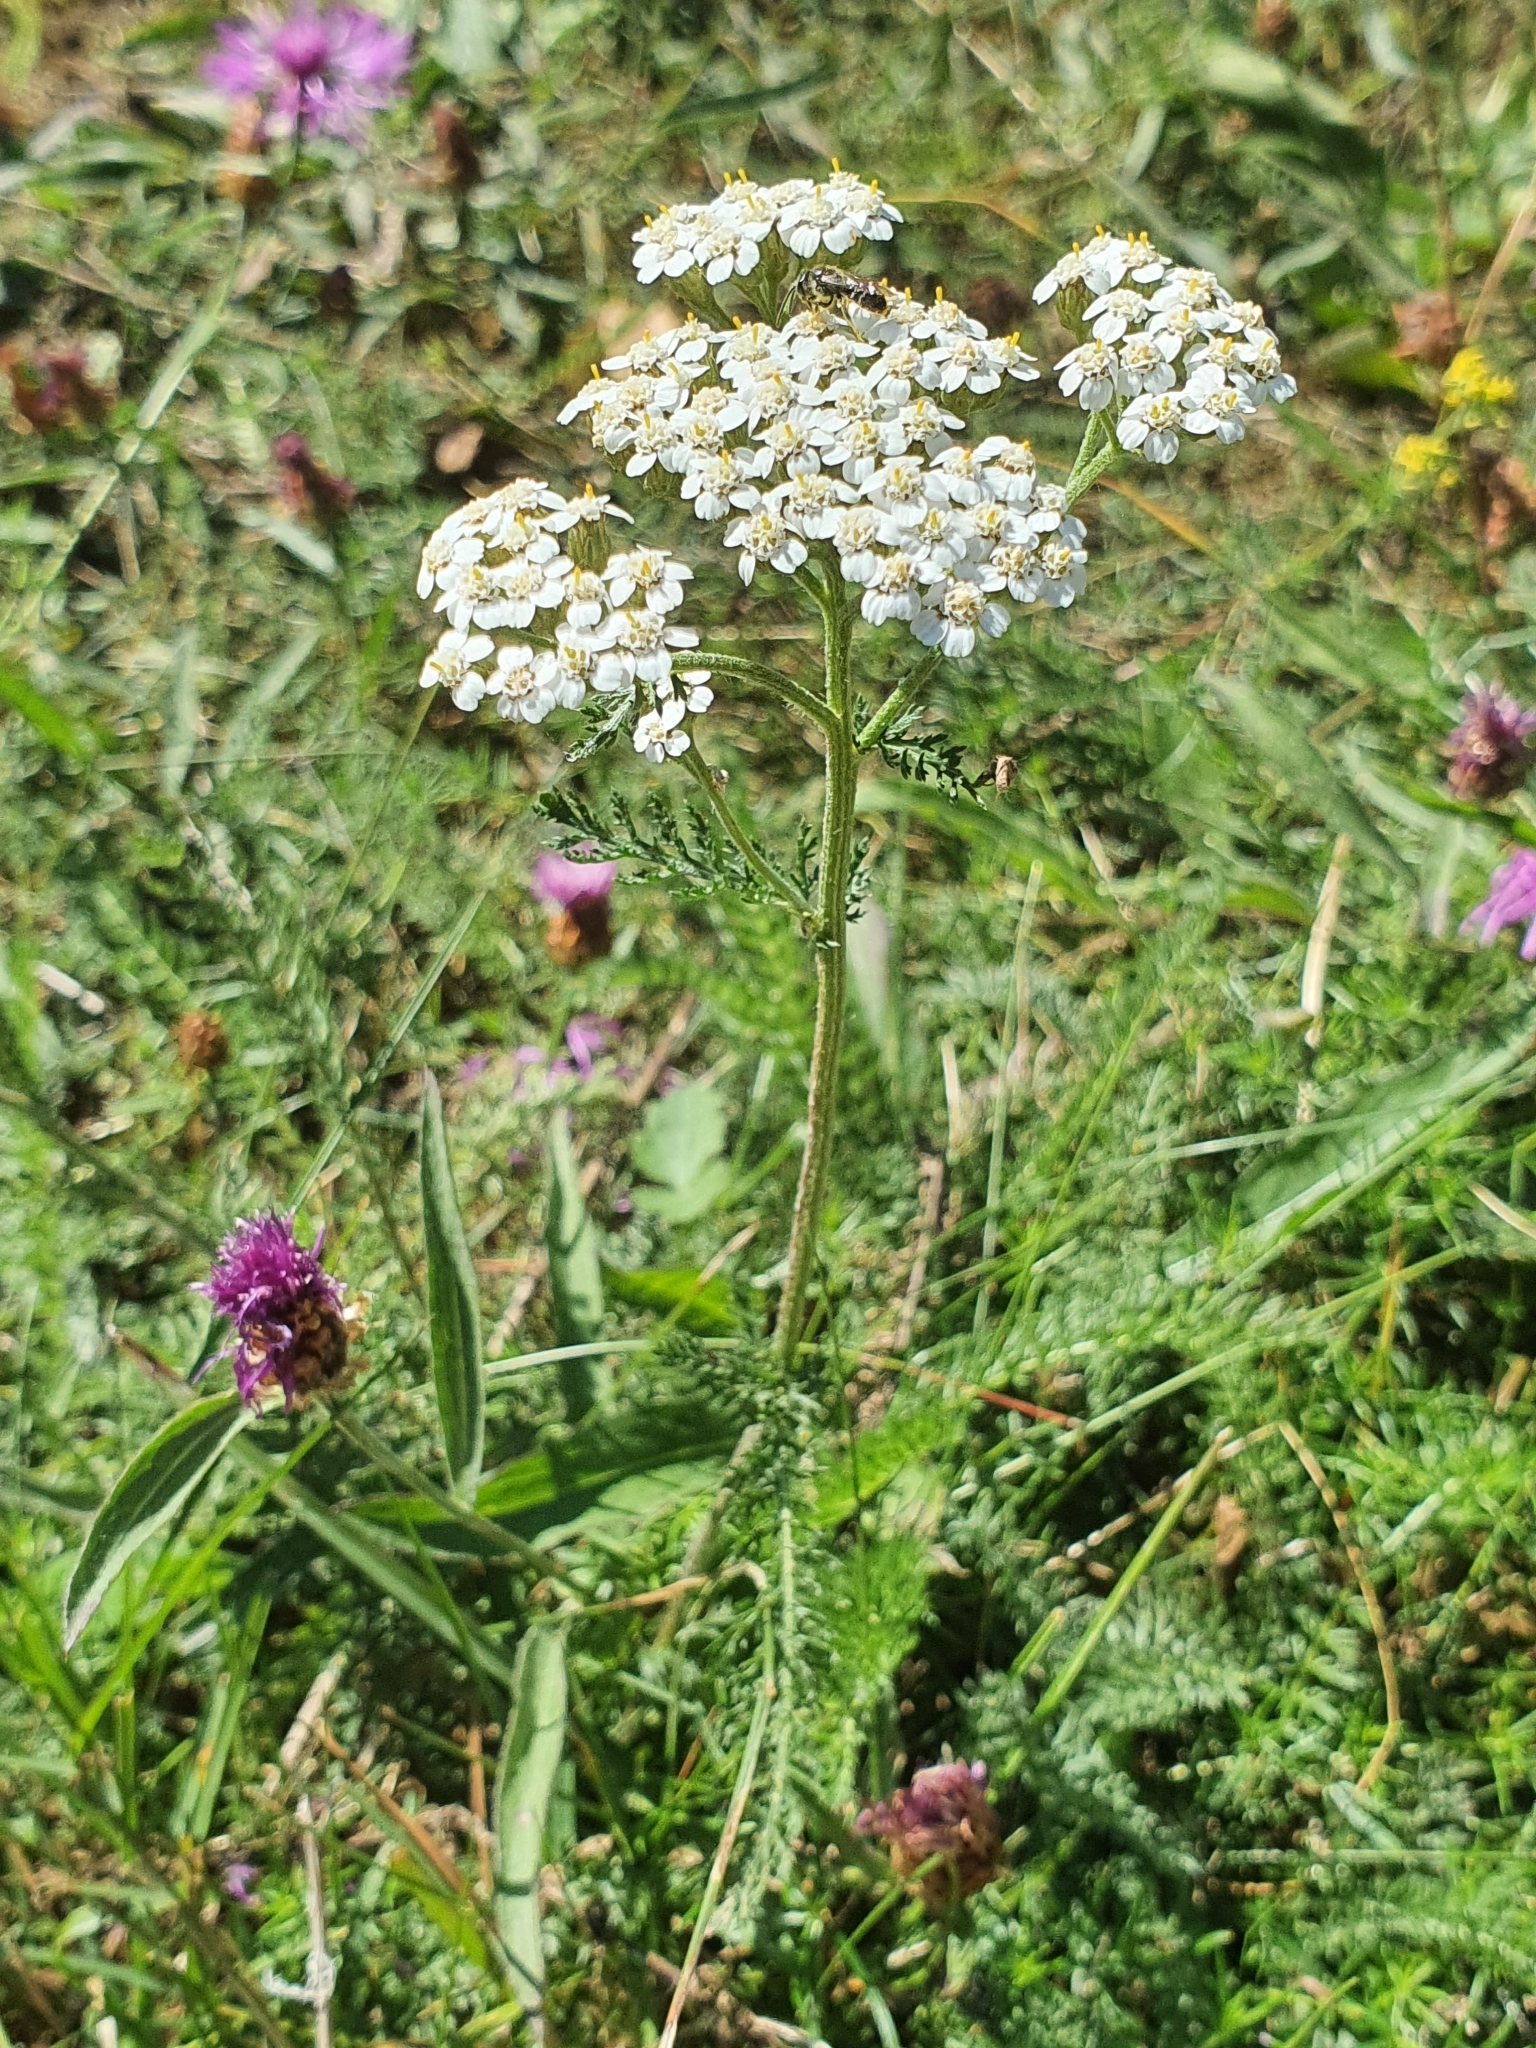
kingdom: Plantae
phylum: Tracheophyta
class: Magnoliopsida
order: Asterales
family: Asteraceae
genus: Achillea
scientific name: Achillea millefolium
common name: Yarrow
